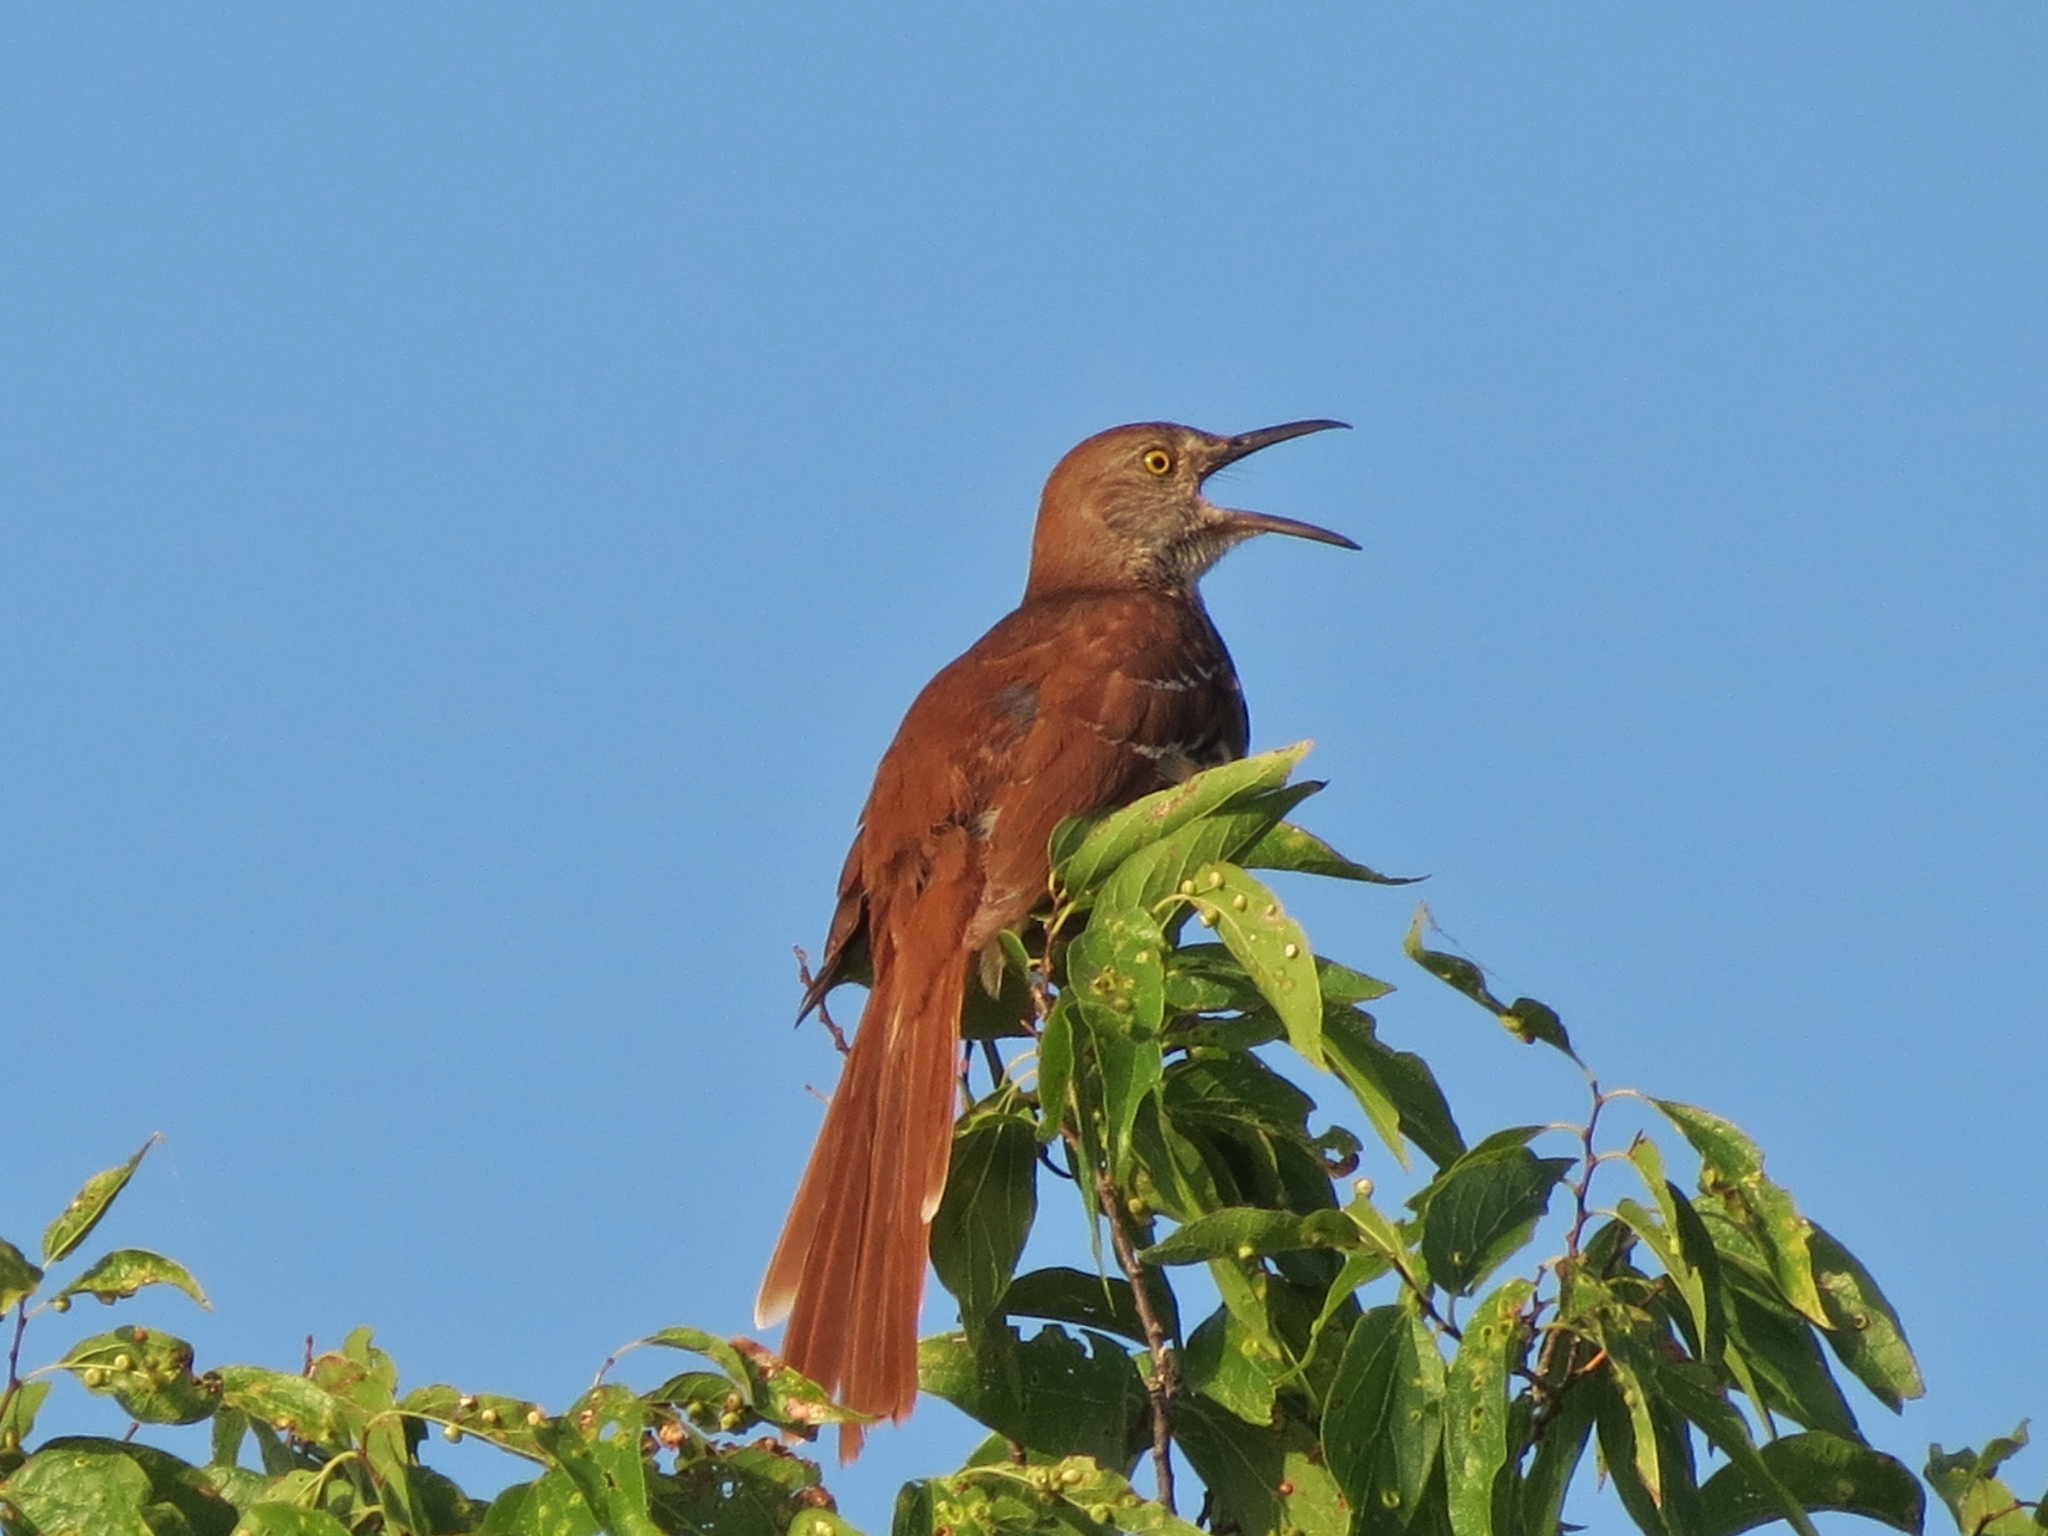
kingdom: Animalia
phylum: Chordata
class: Aves
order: Passeriformes
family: Mimidae
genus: Toxostoma
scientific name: Toxostoma rufum
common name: Brown thrasher
